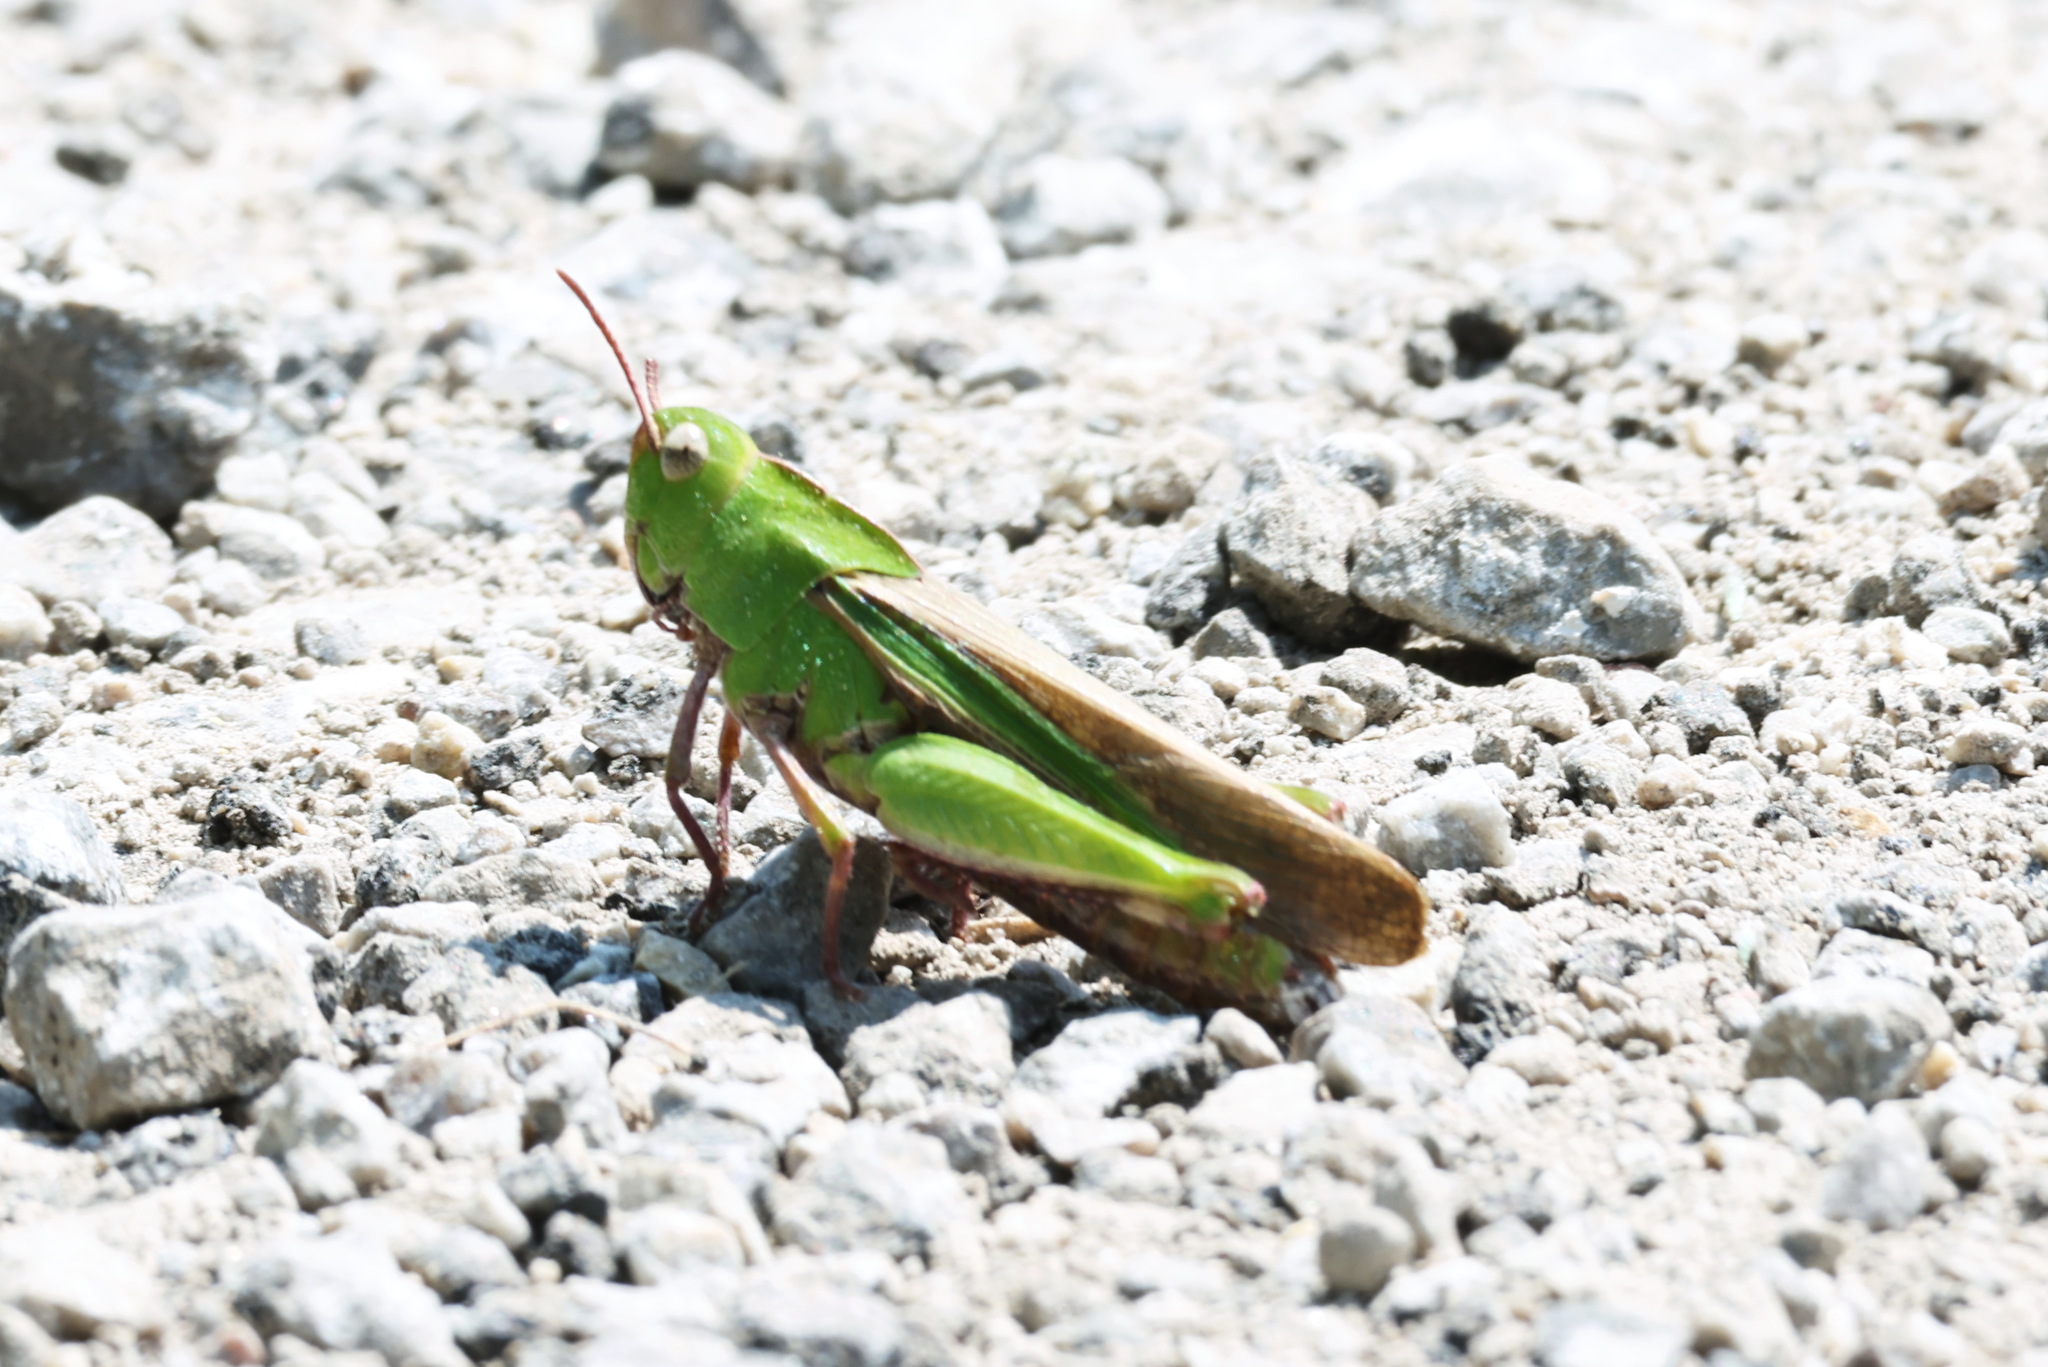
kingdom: Animalia
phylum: Arthropoda
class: Insecta
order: Orthoptera
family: Acrididae
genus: Chortophaga
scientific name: Chortophaga viridifasciata
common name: Green-striped grasshopper
